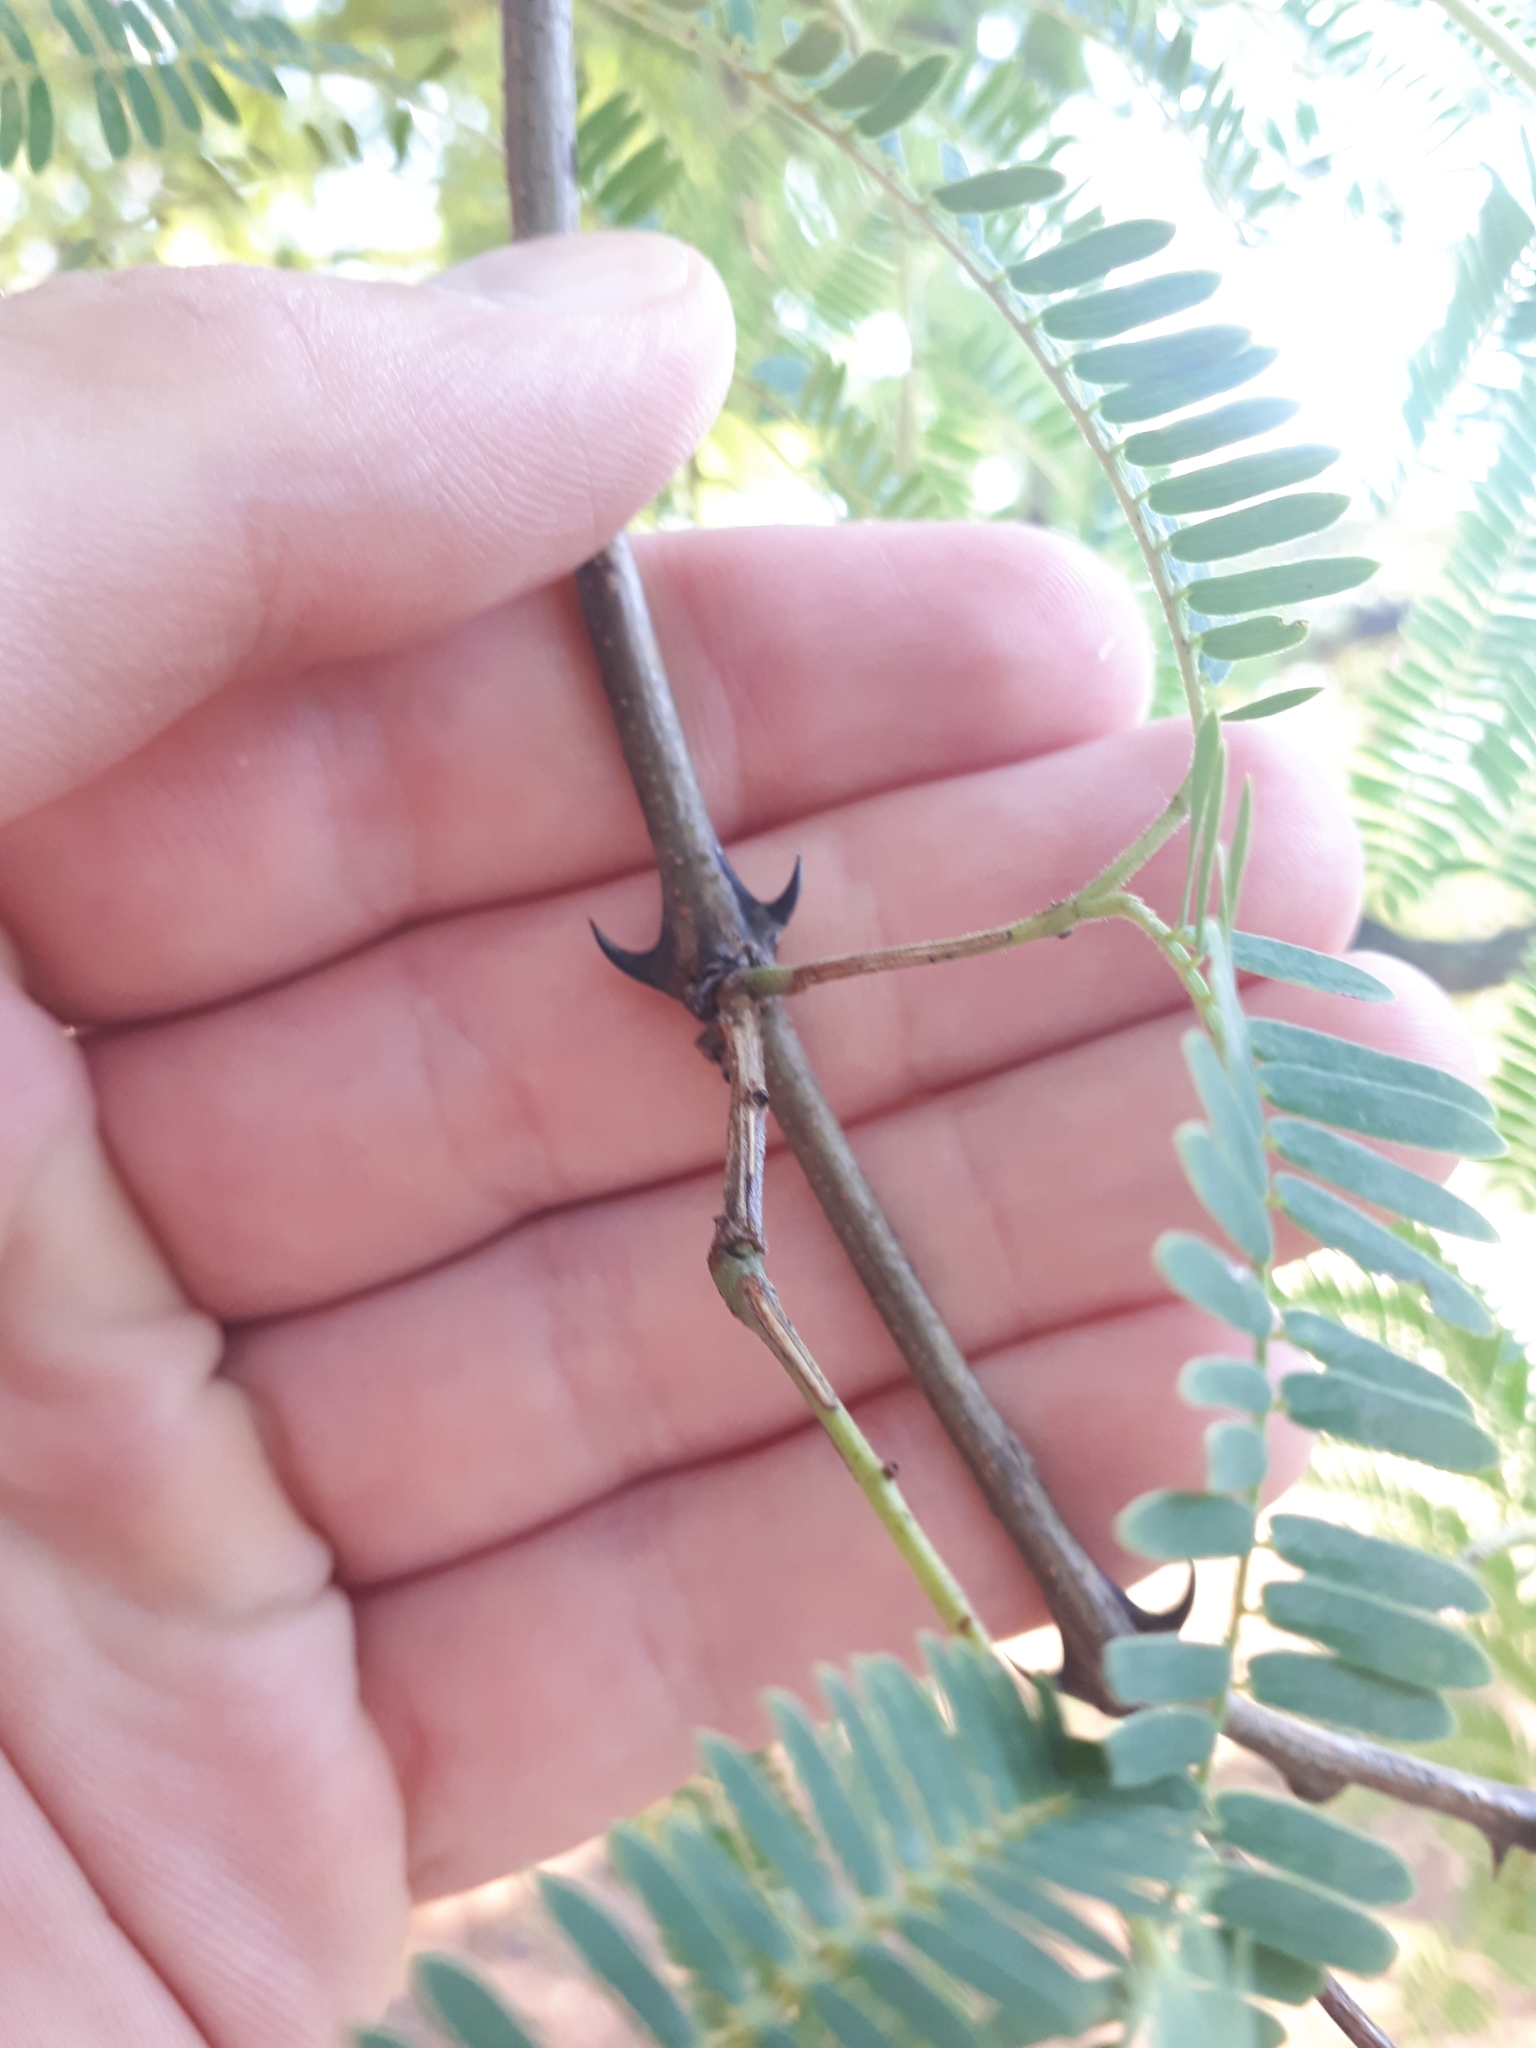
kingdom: Plantae
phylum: Tracheophyta
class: Magnoliopsida
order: Fabales
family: Fabaceae
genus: Senegalia
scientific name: Senegalia galpinii
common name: Monkey-thorn
